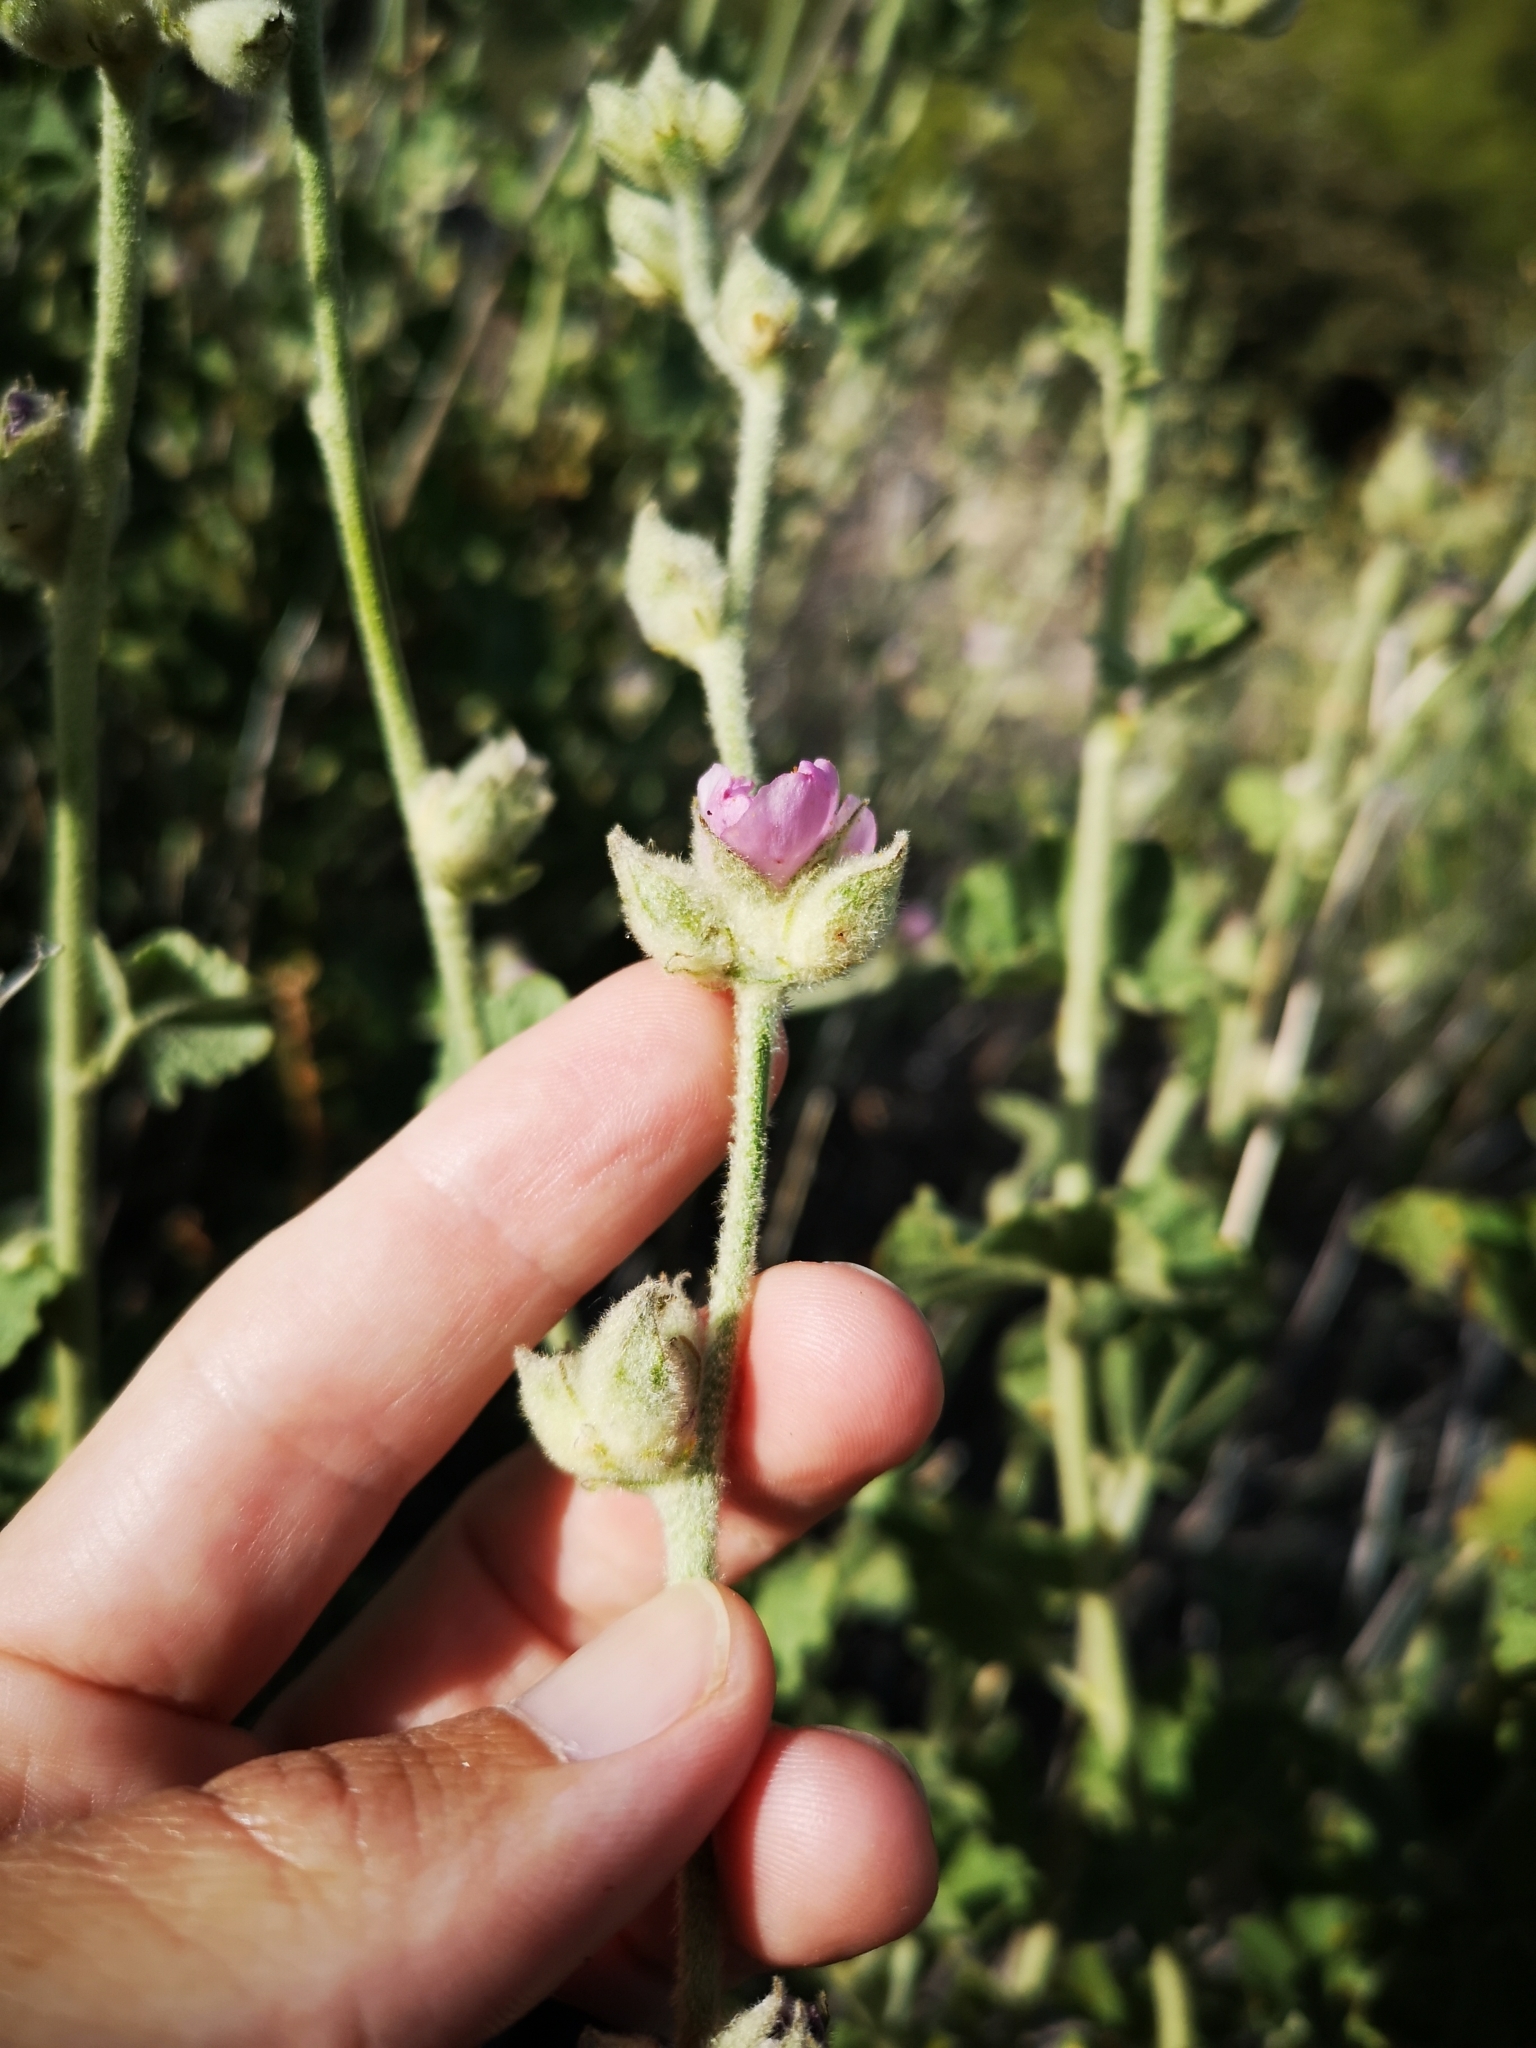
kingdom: Plantae
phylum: Tracheophyta
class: Magnoliopsida
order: Malvales
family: Malvaceae
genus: Malacothamnus
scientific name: Malacothamnus fremontii
